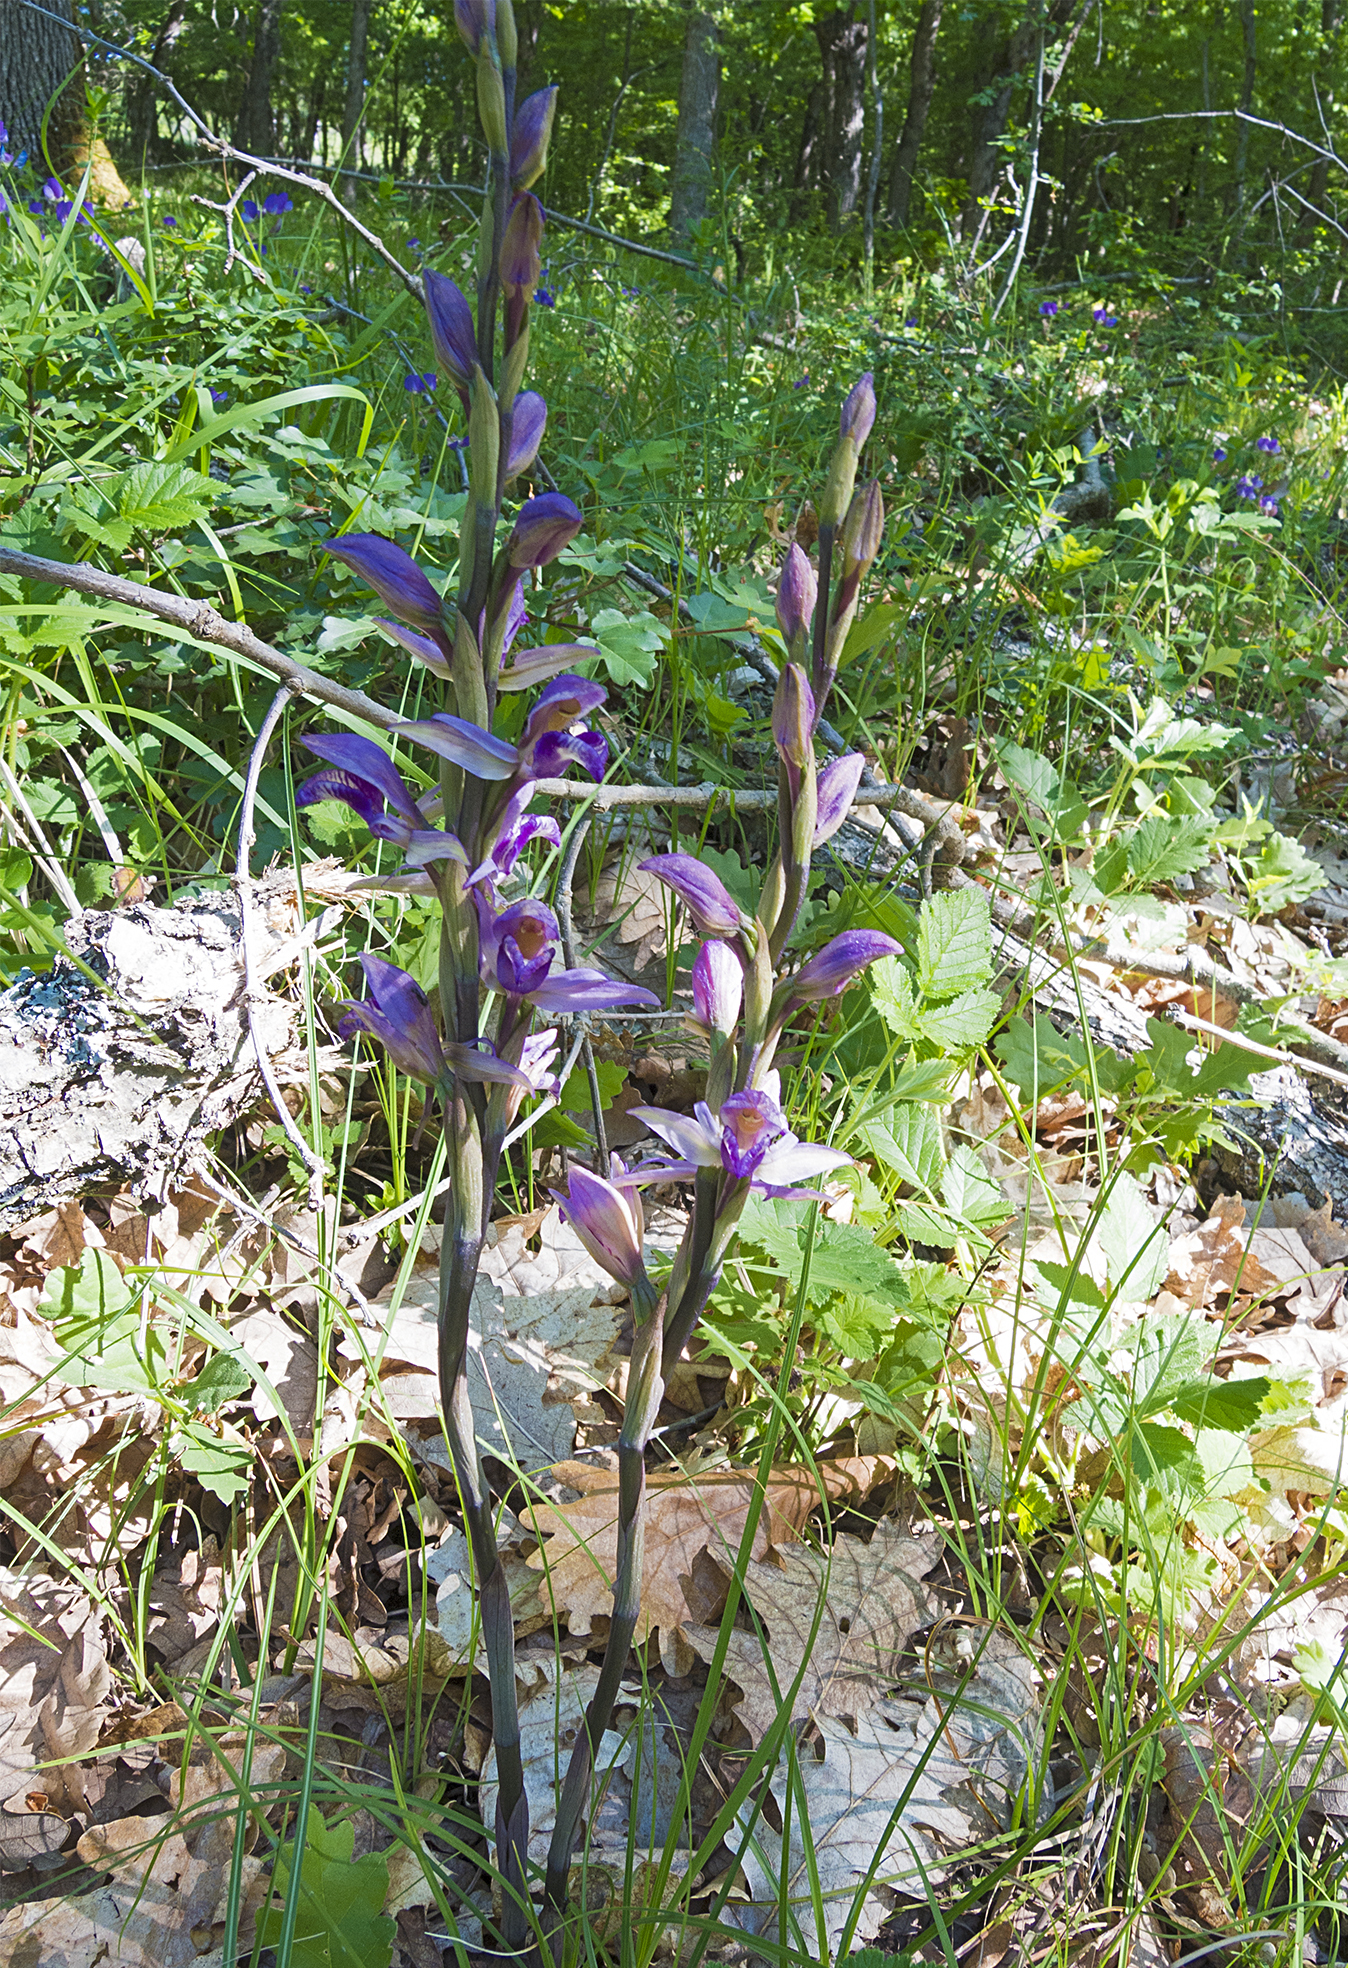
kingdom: Plantae
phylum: Tracheophyta
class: Liliopsida
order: Asparagales
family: Orchidaceae
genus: Limodorum
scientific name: Limodorum abortivum
